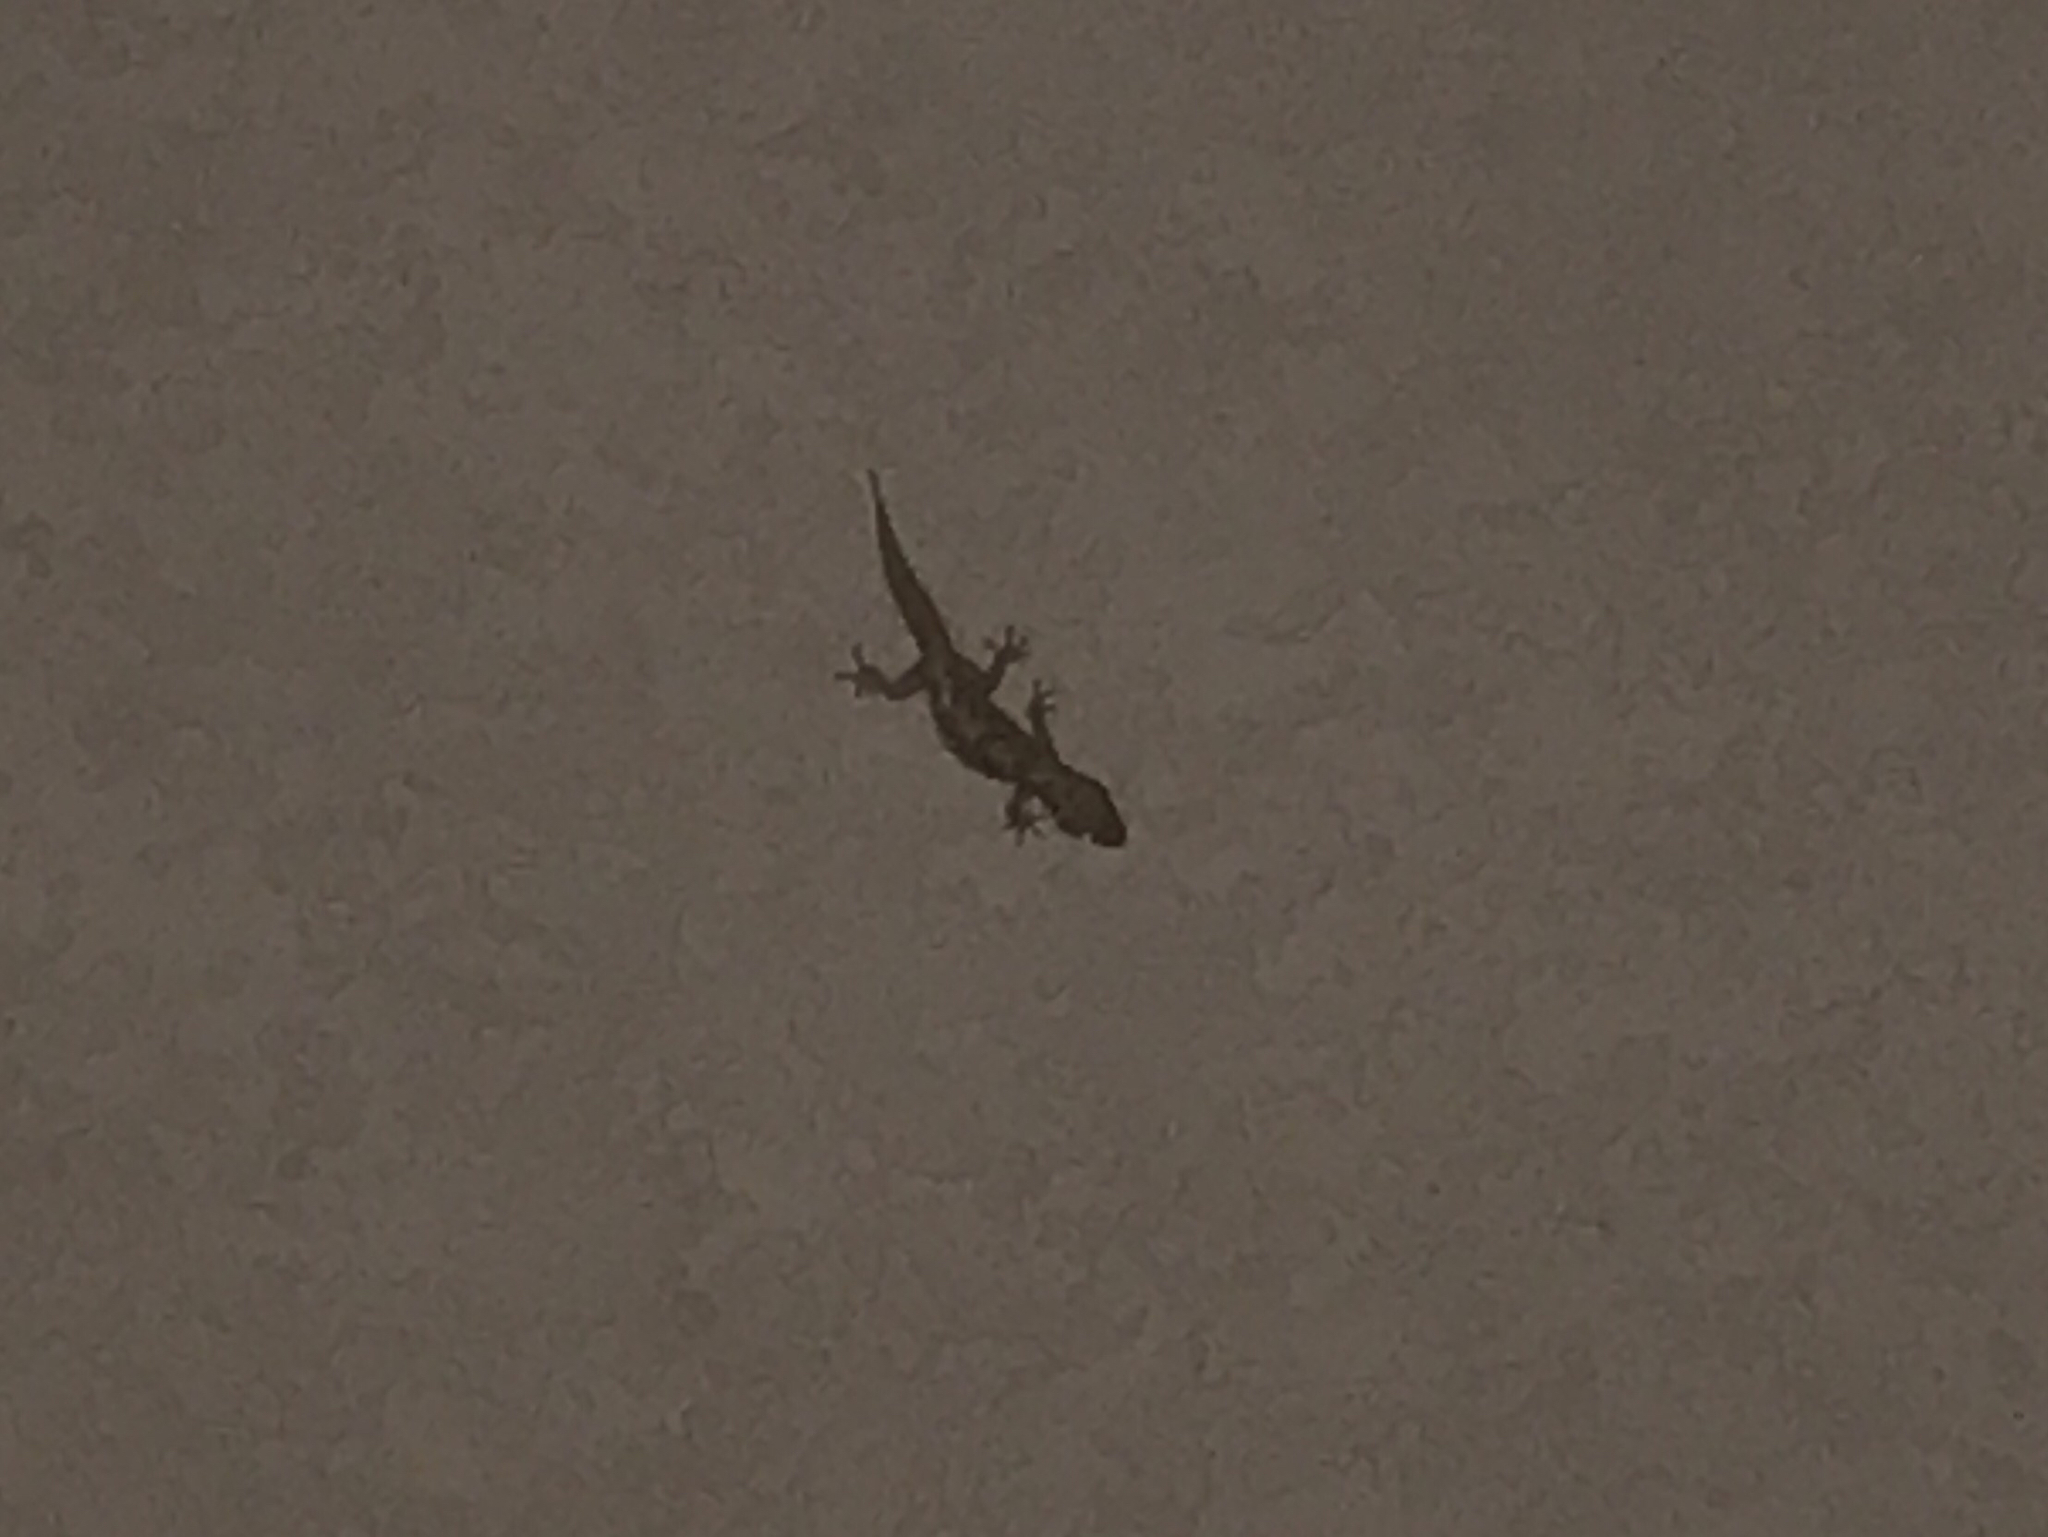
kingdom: Animalia
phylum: Chordata
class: Squamata
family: Gekkonidae
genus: Hemidactylus
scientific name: Hemidactylus turcicus
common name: Turkish gecko
